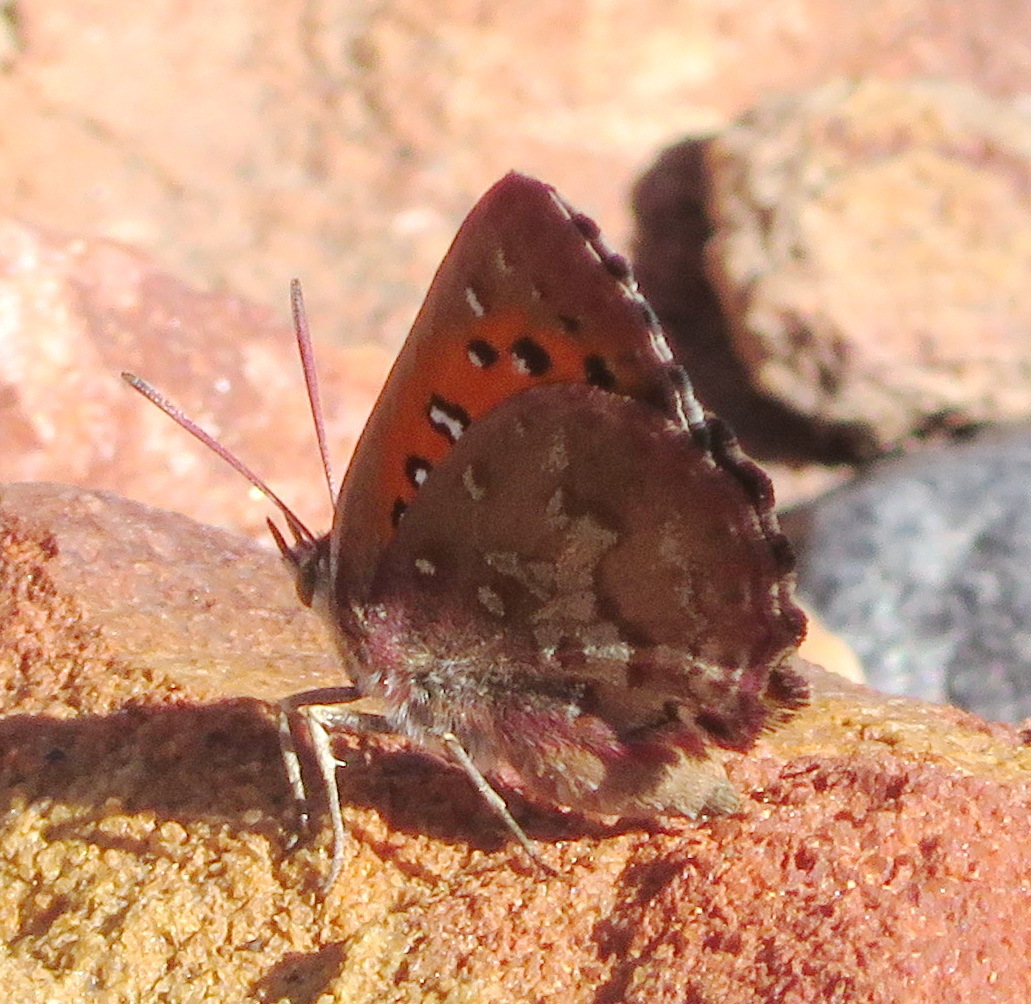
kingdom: Animalia
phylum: Arthropoda
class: Insecta
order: Lepidoptera
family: Lycaenidae
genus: Aloeides
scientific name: Aloeides depicta
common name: Depicta copper
